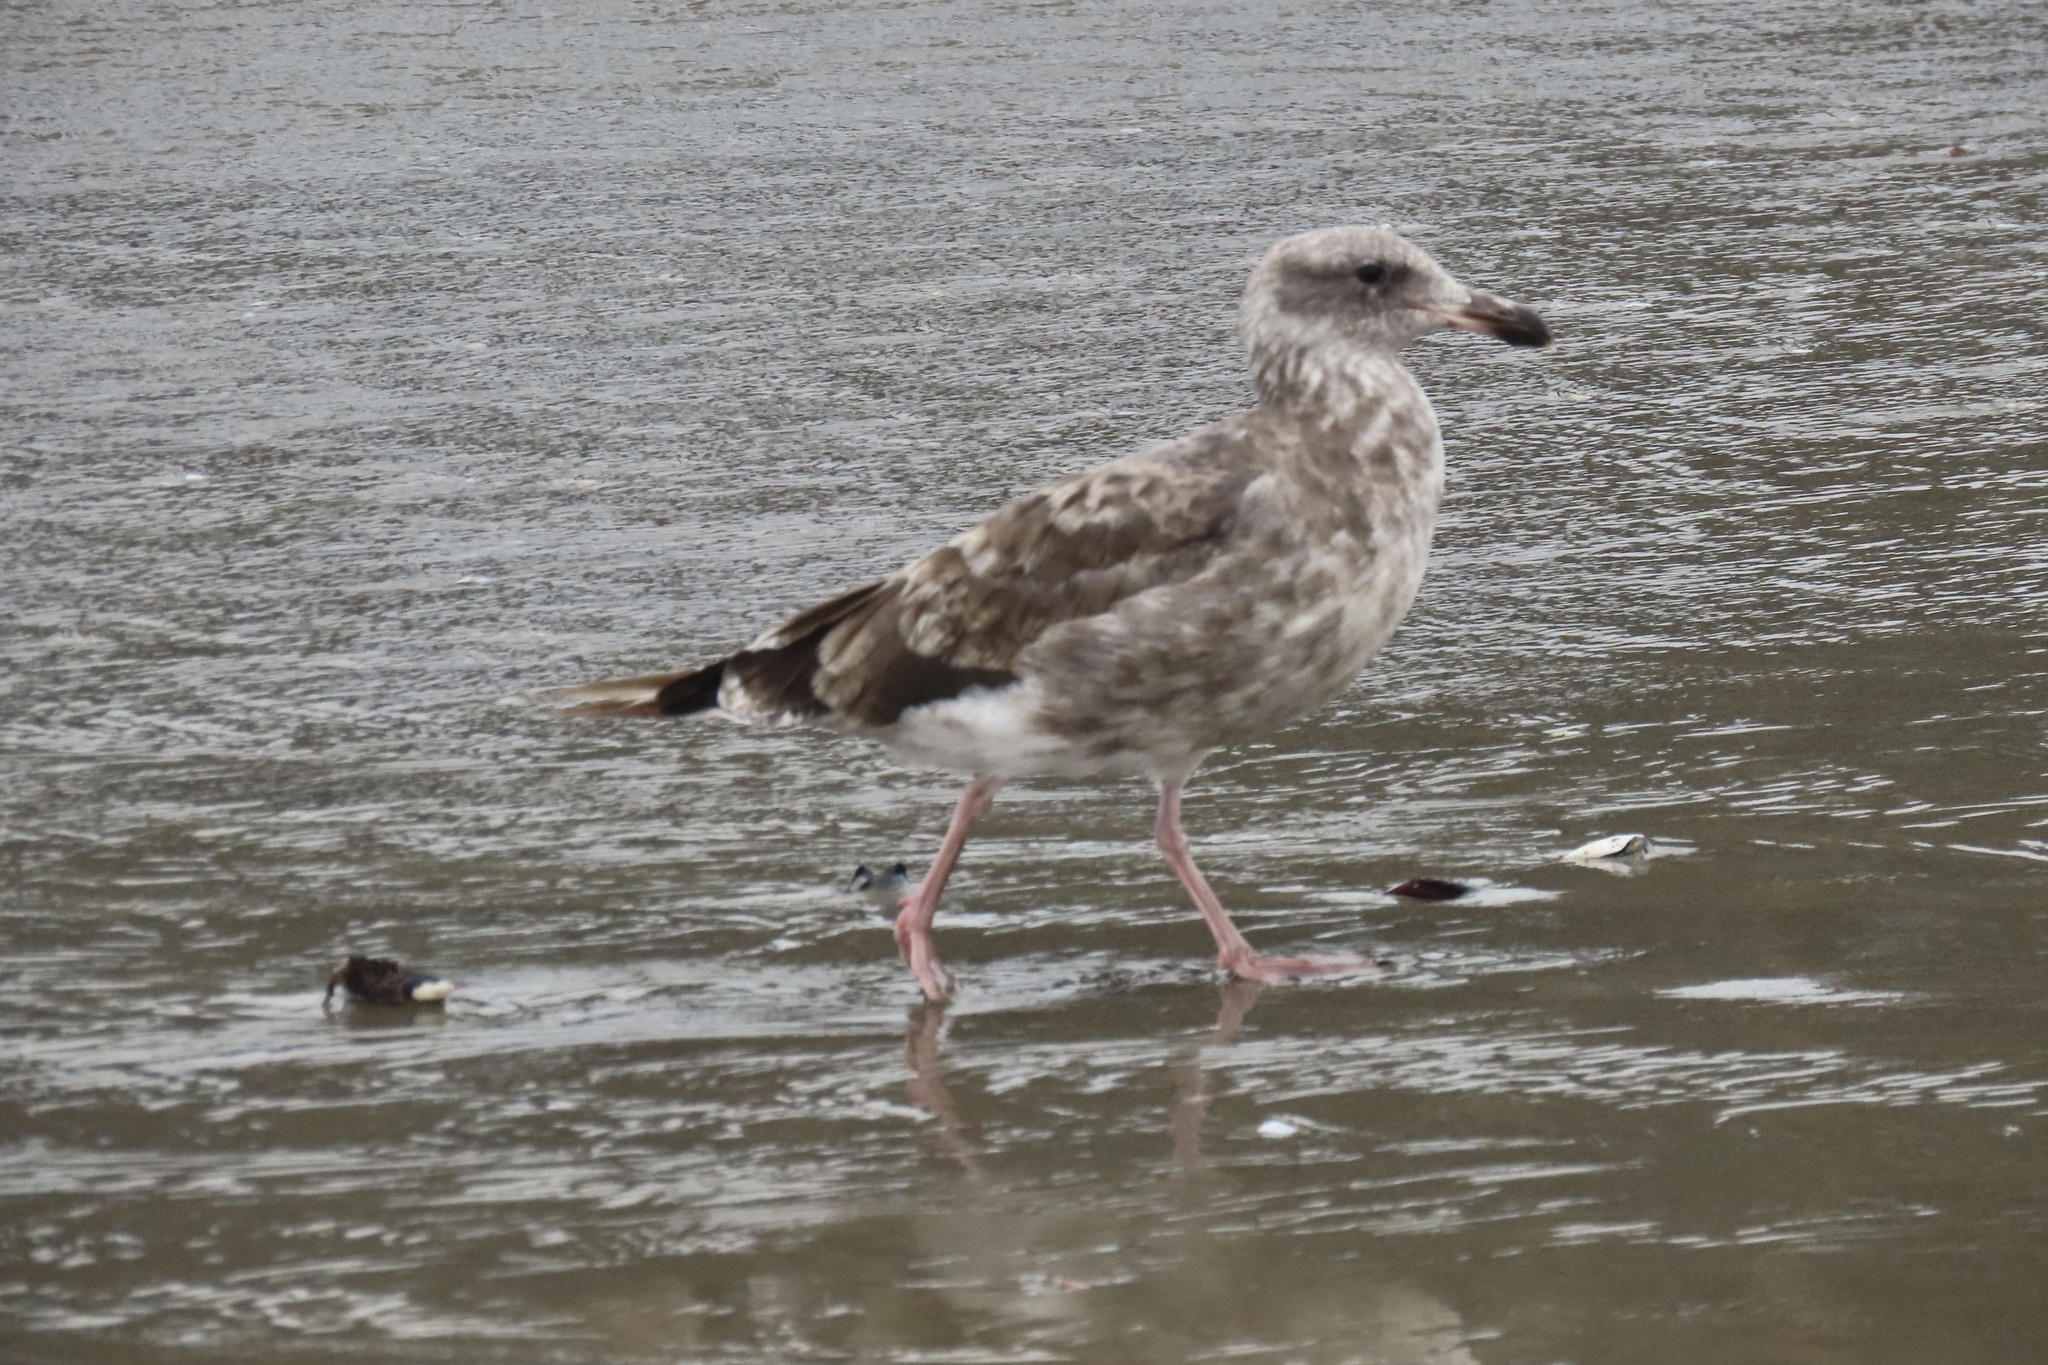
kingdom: Animalia
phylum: Chordata
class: Aves
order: Charadriiformes
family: Laridae
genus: Larus
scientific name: Larus occidentalis
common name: Western gull
